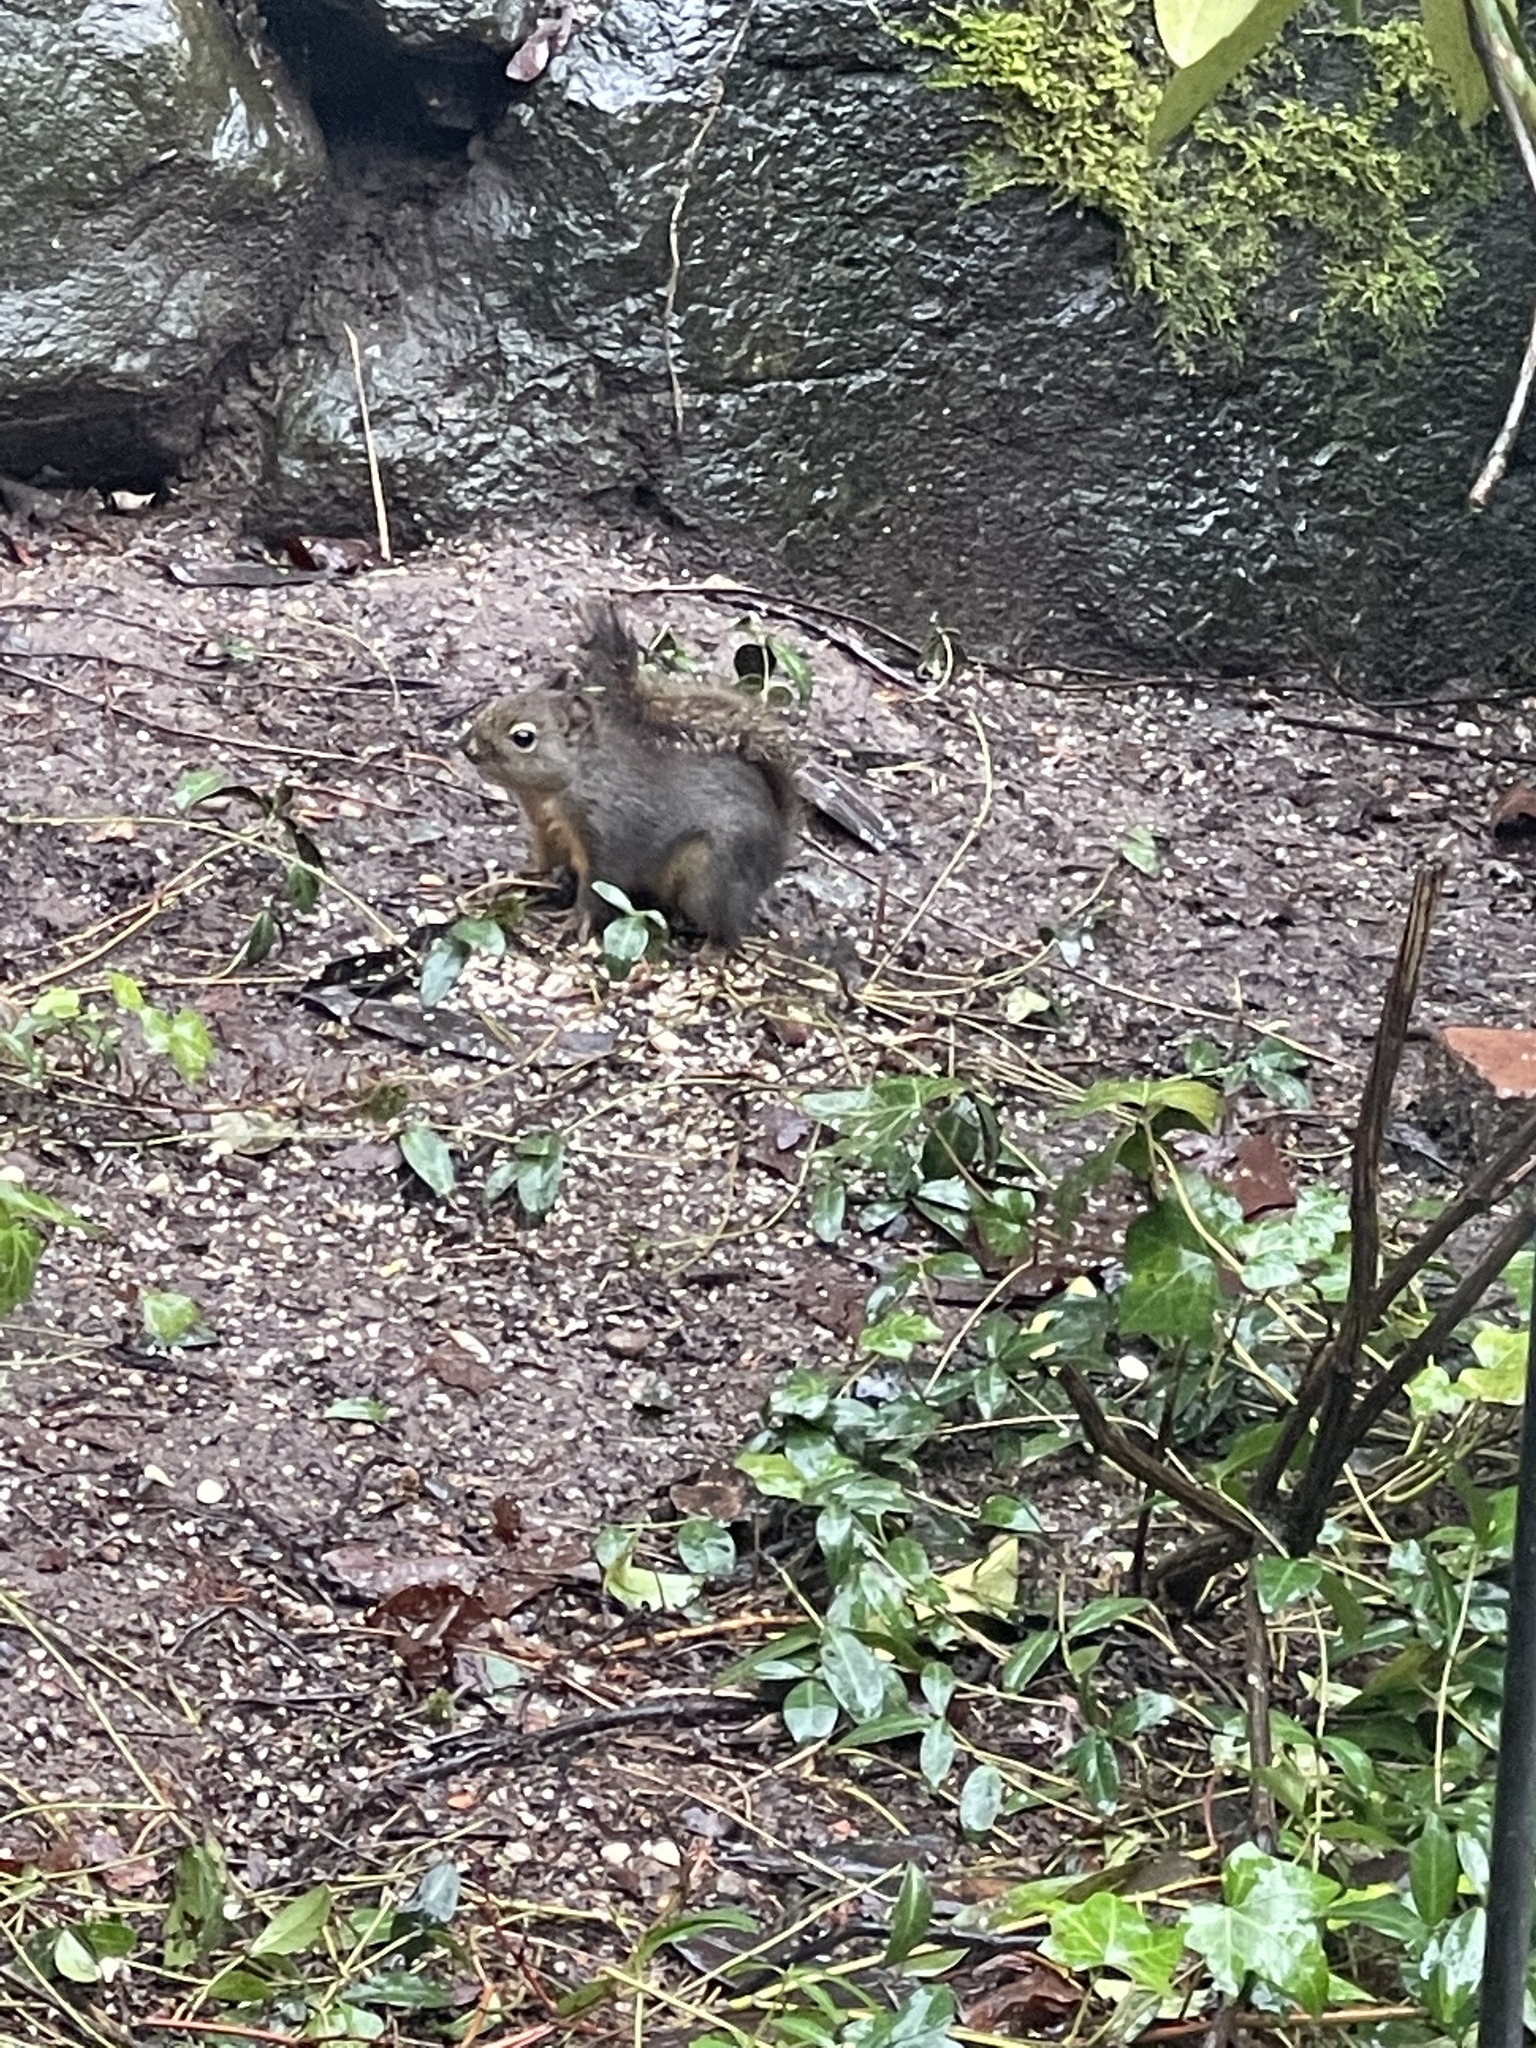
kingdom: Animalia
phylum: Chordata
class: Mammalia
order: Rodentia
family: Sciuridae
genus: Tamiasciurus
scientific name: Tamiasciurus douglasii
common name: Douglas's squirrel
